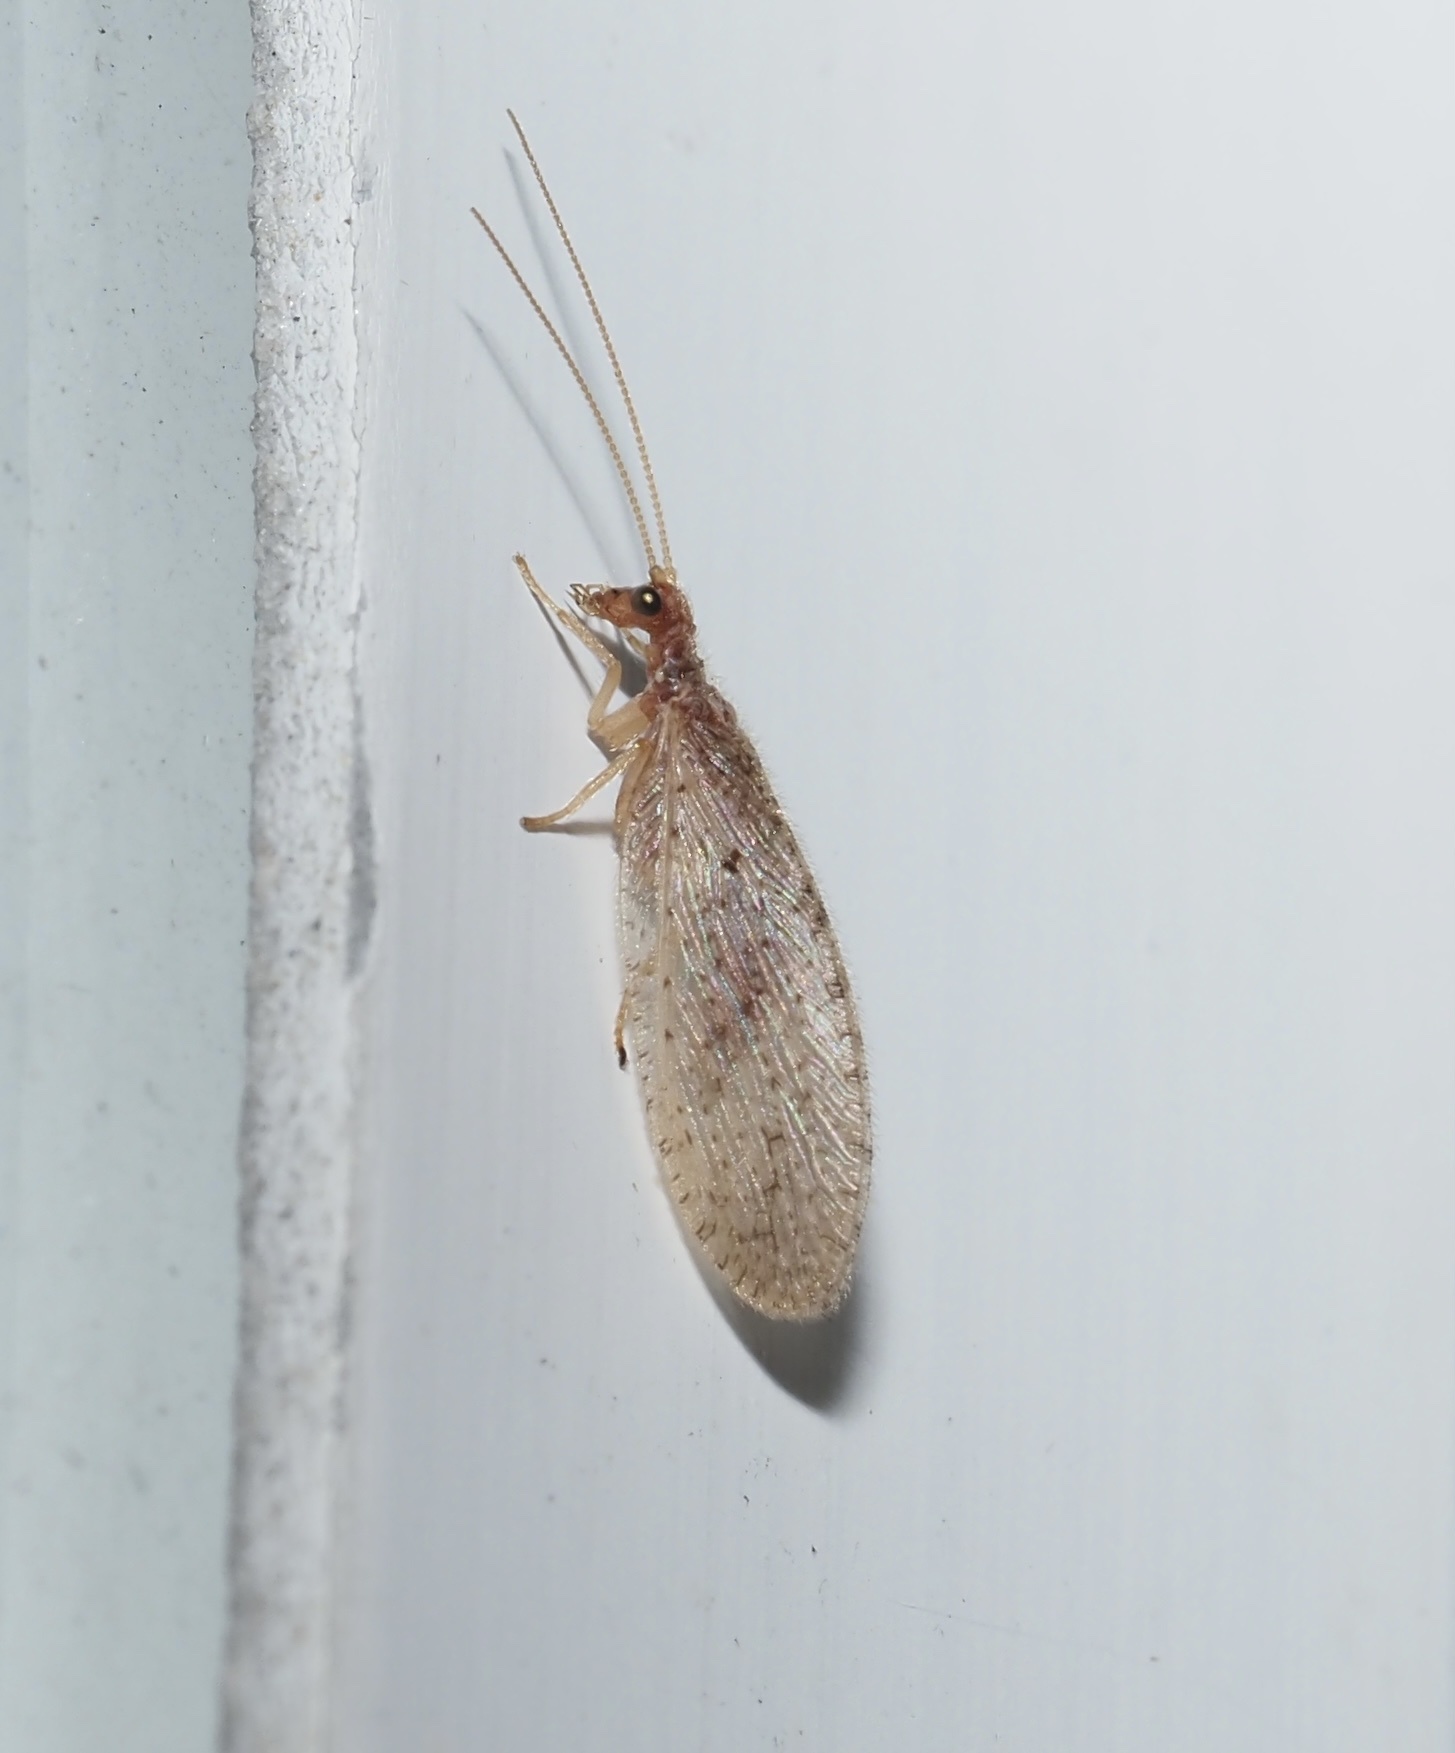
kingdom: Animalia
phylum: Arthropoda
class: Insecta
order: Neuroptera
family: Hemerobiidae
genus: Micromus
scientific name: Micromus subanticus
